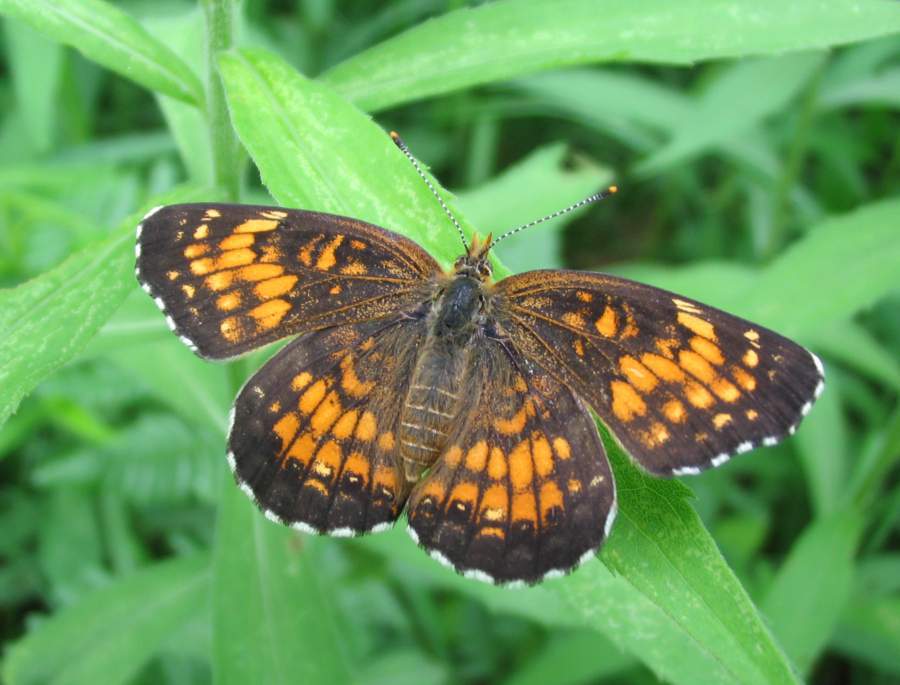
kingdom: Animalia
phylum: Arthropoda
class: Insecta
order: Lepidoptera
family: Nymphalidae
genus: Chlosyne
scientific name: Chlosyne harrisii
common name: Harris's checkerspot
